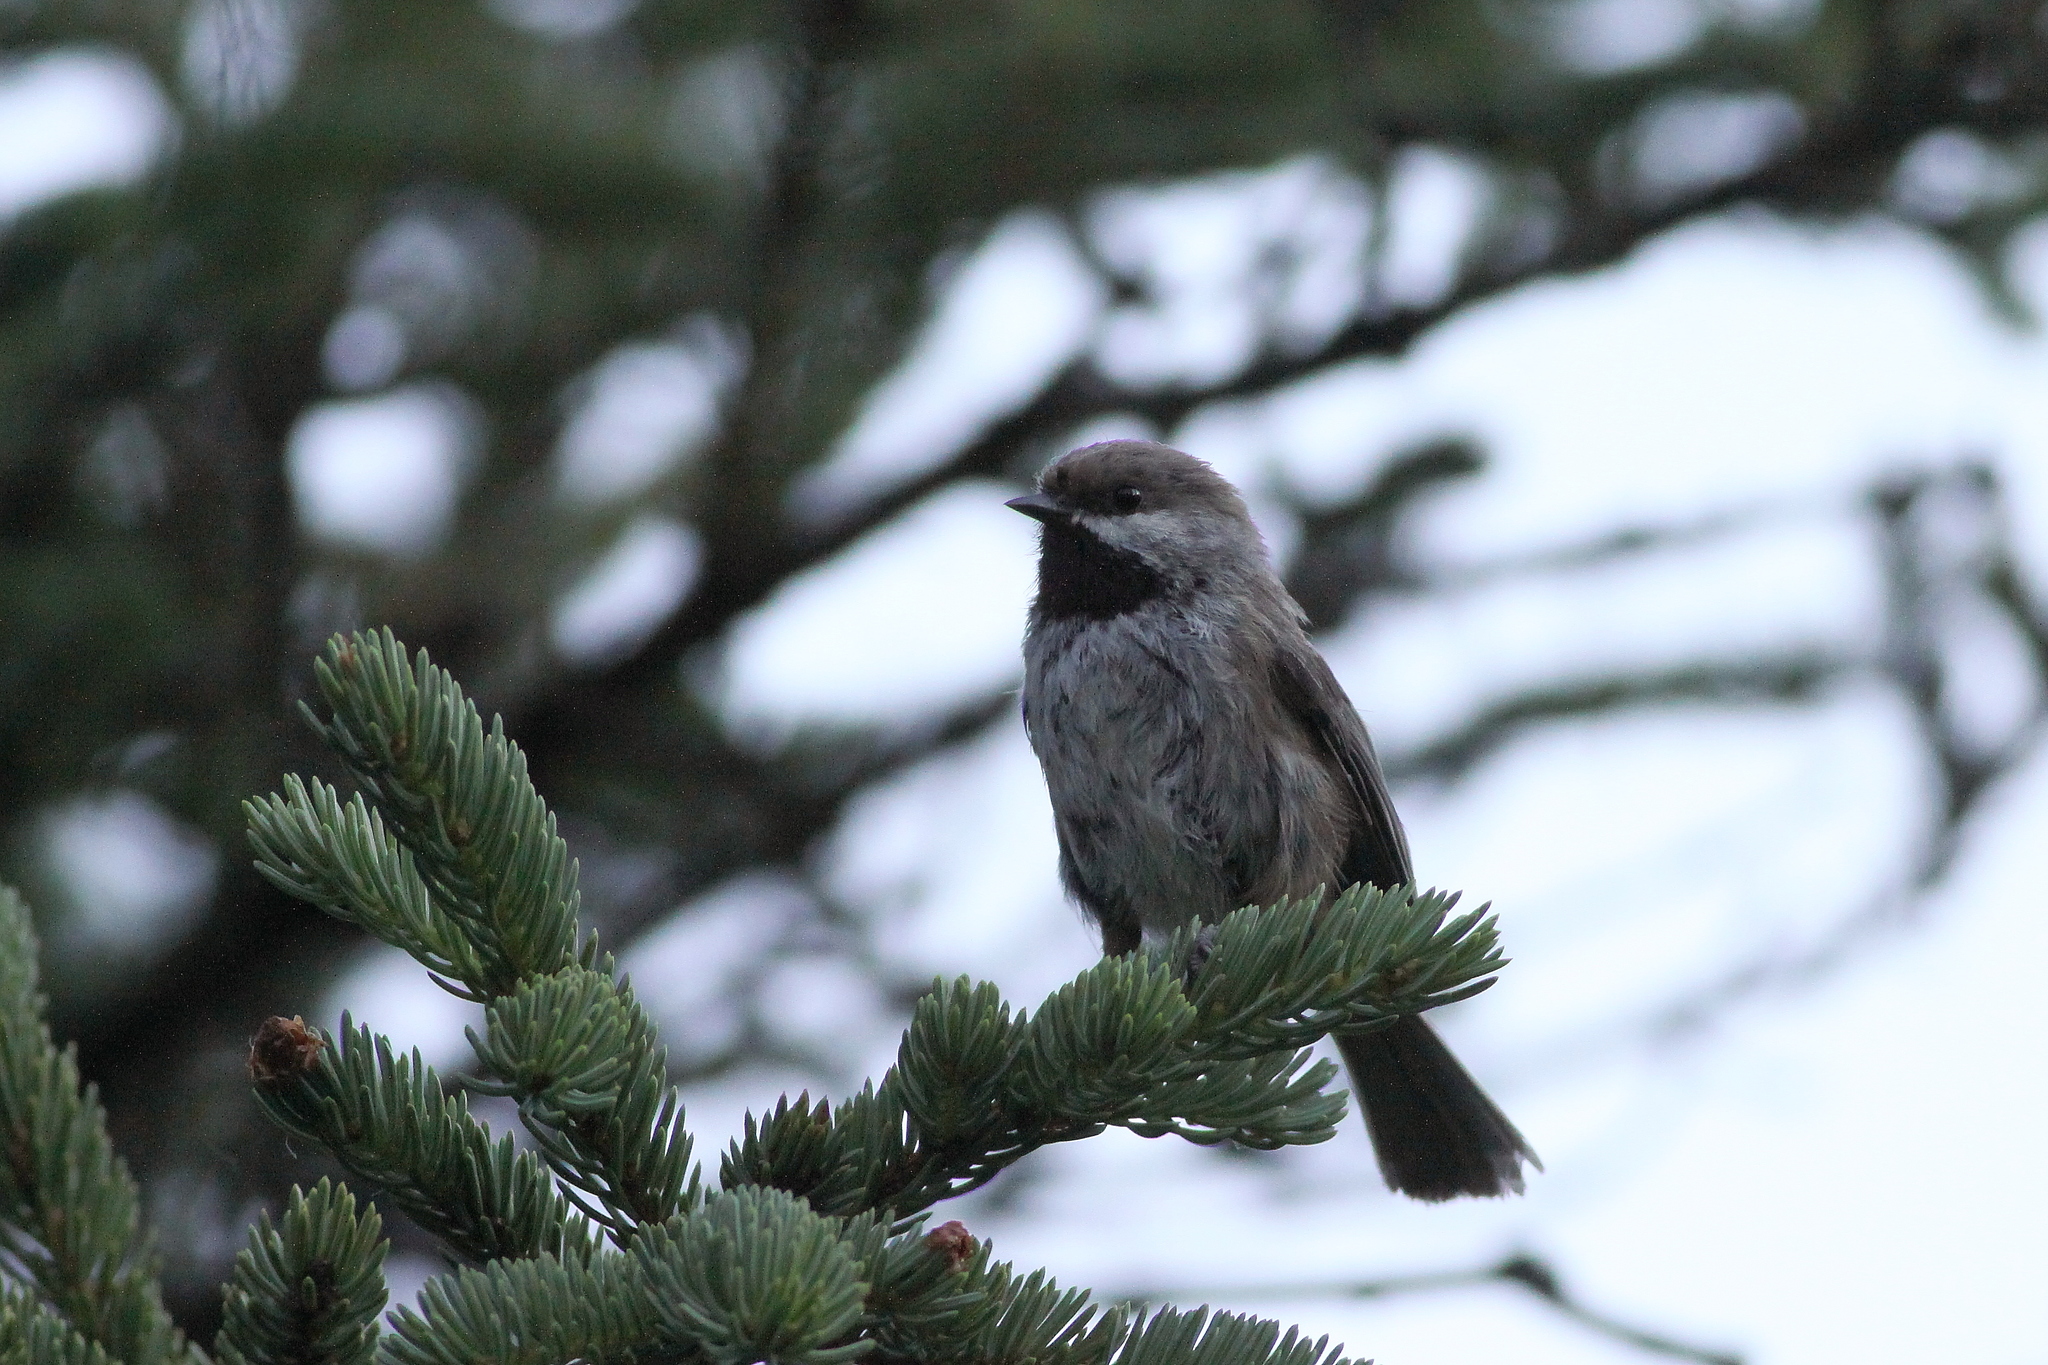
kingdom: Animalia
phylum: Chordata
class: Aves
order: Passeriformes
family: Paridae
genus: Poecile
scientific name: Poecile hudsonicus
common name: Boreal chickadee
